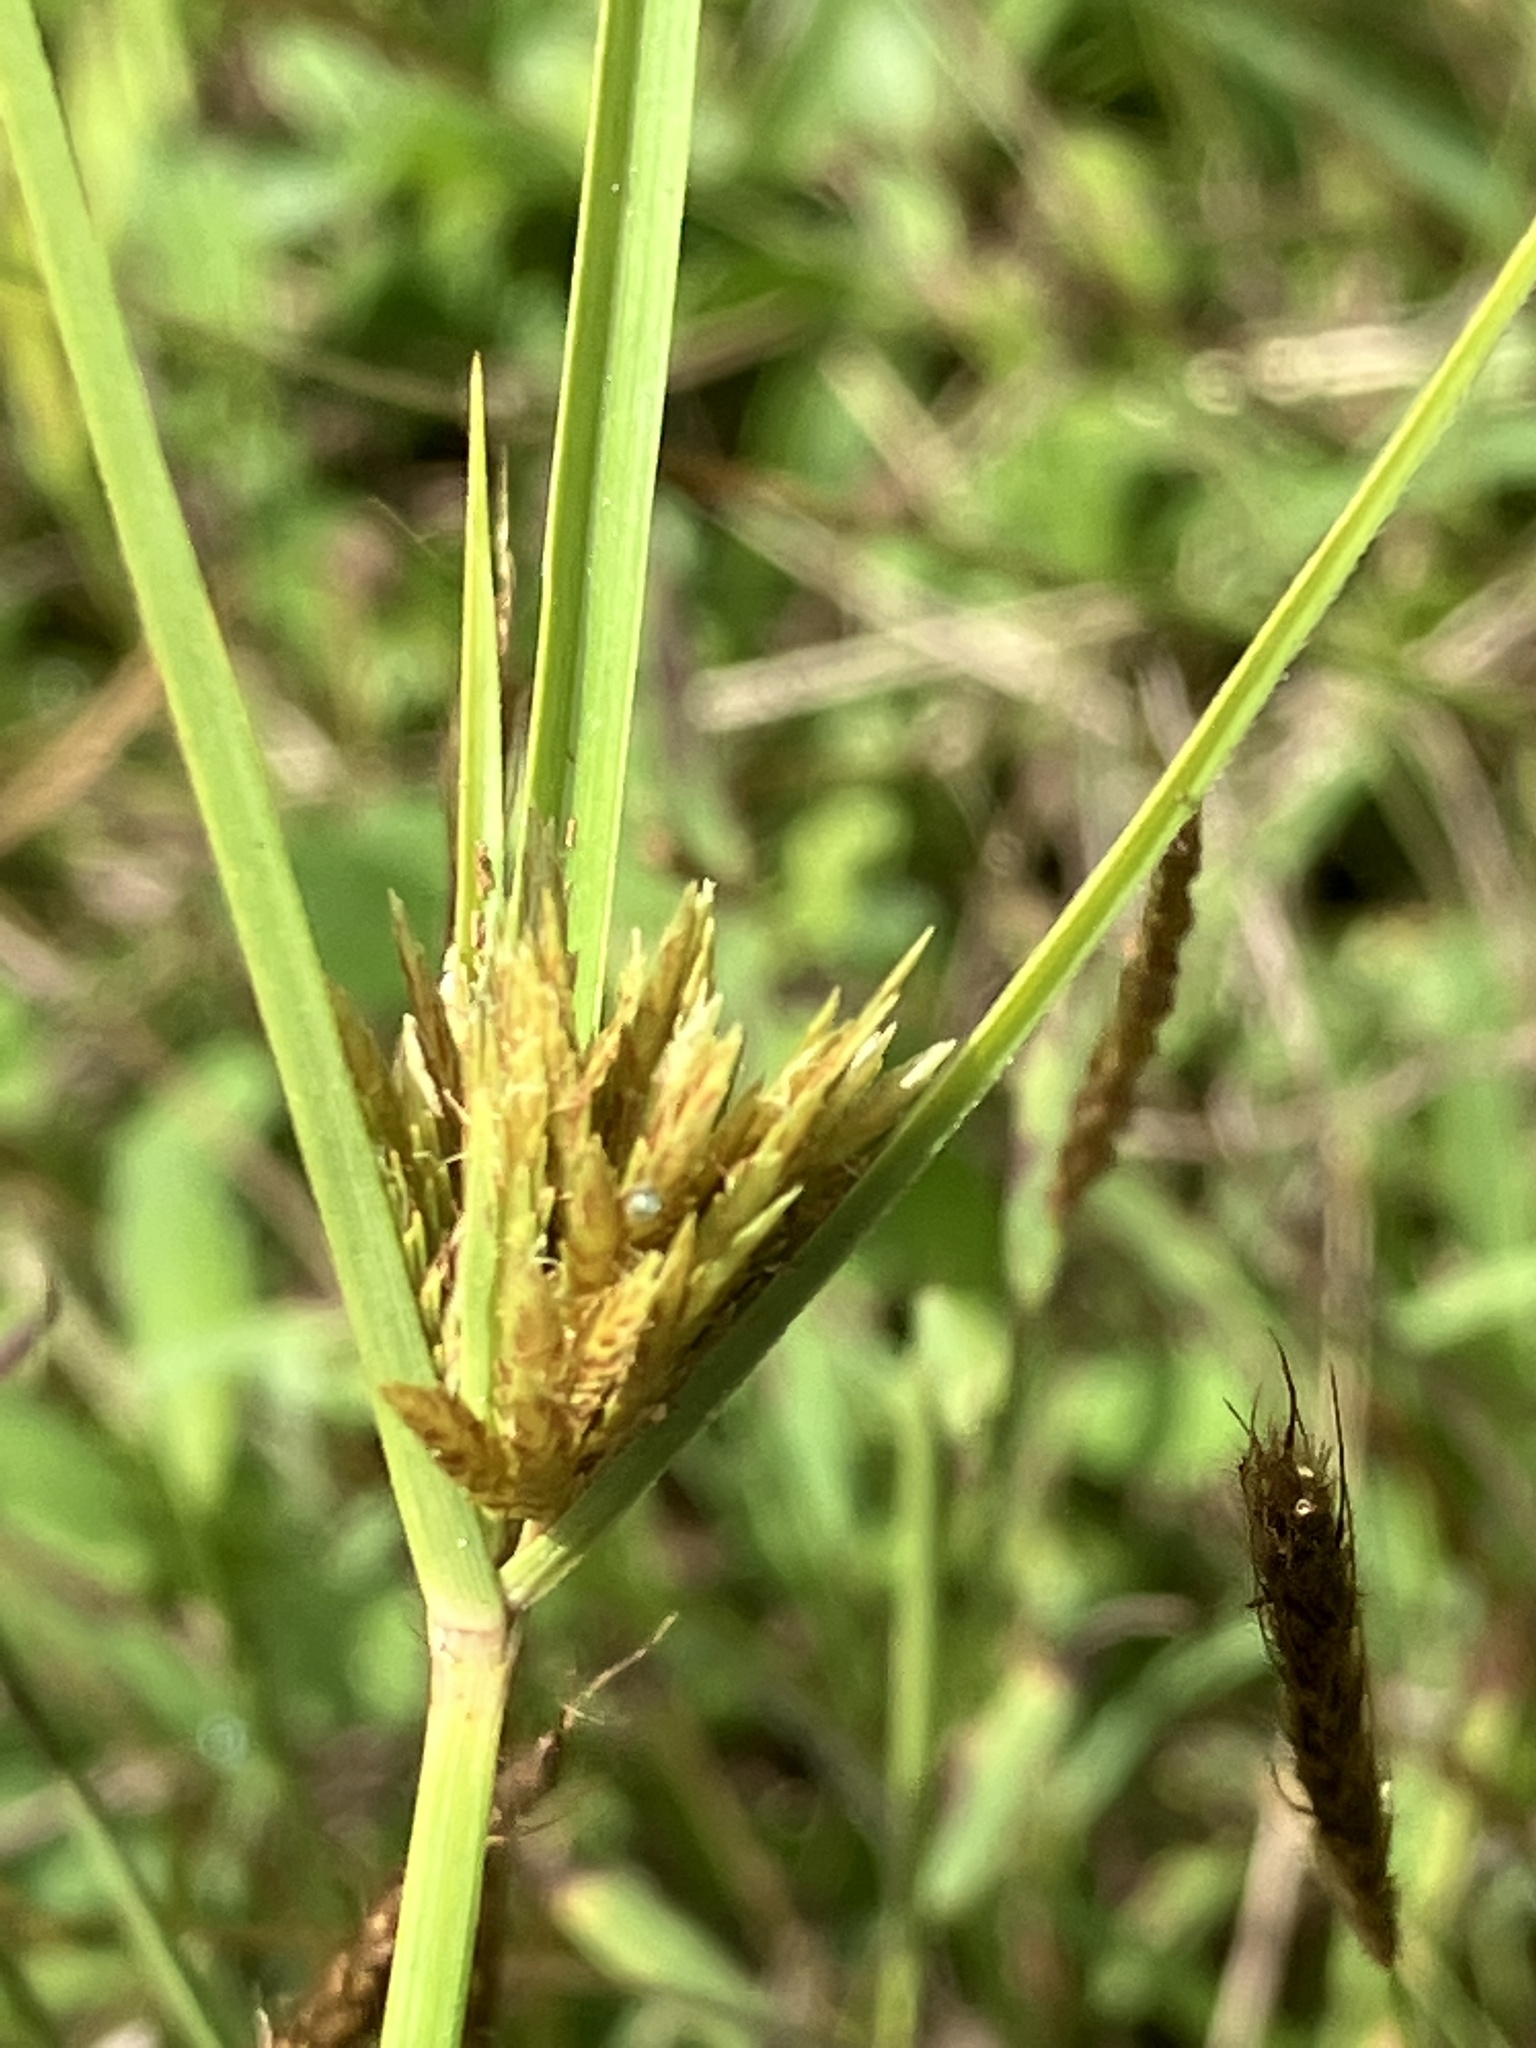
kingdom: Plantae
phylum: Tracheophyta
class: Liliopsida
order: Poales
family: Cyperaceae
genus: Cyperus
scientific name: Cyperus polystachyos
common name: Bunchy flat sedge
